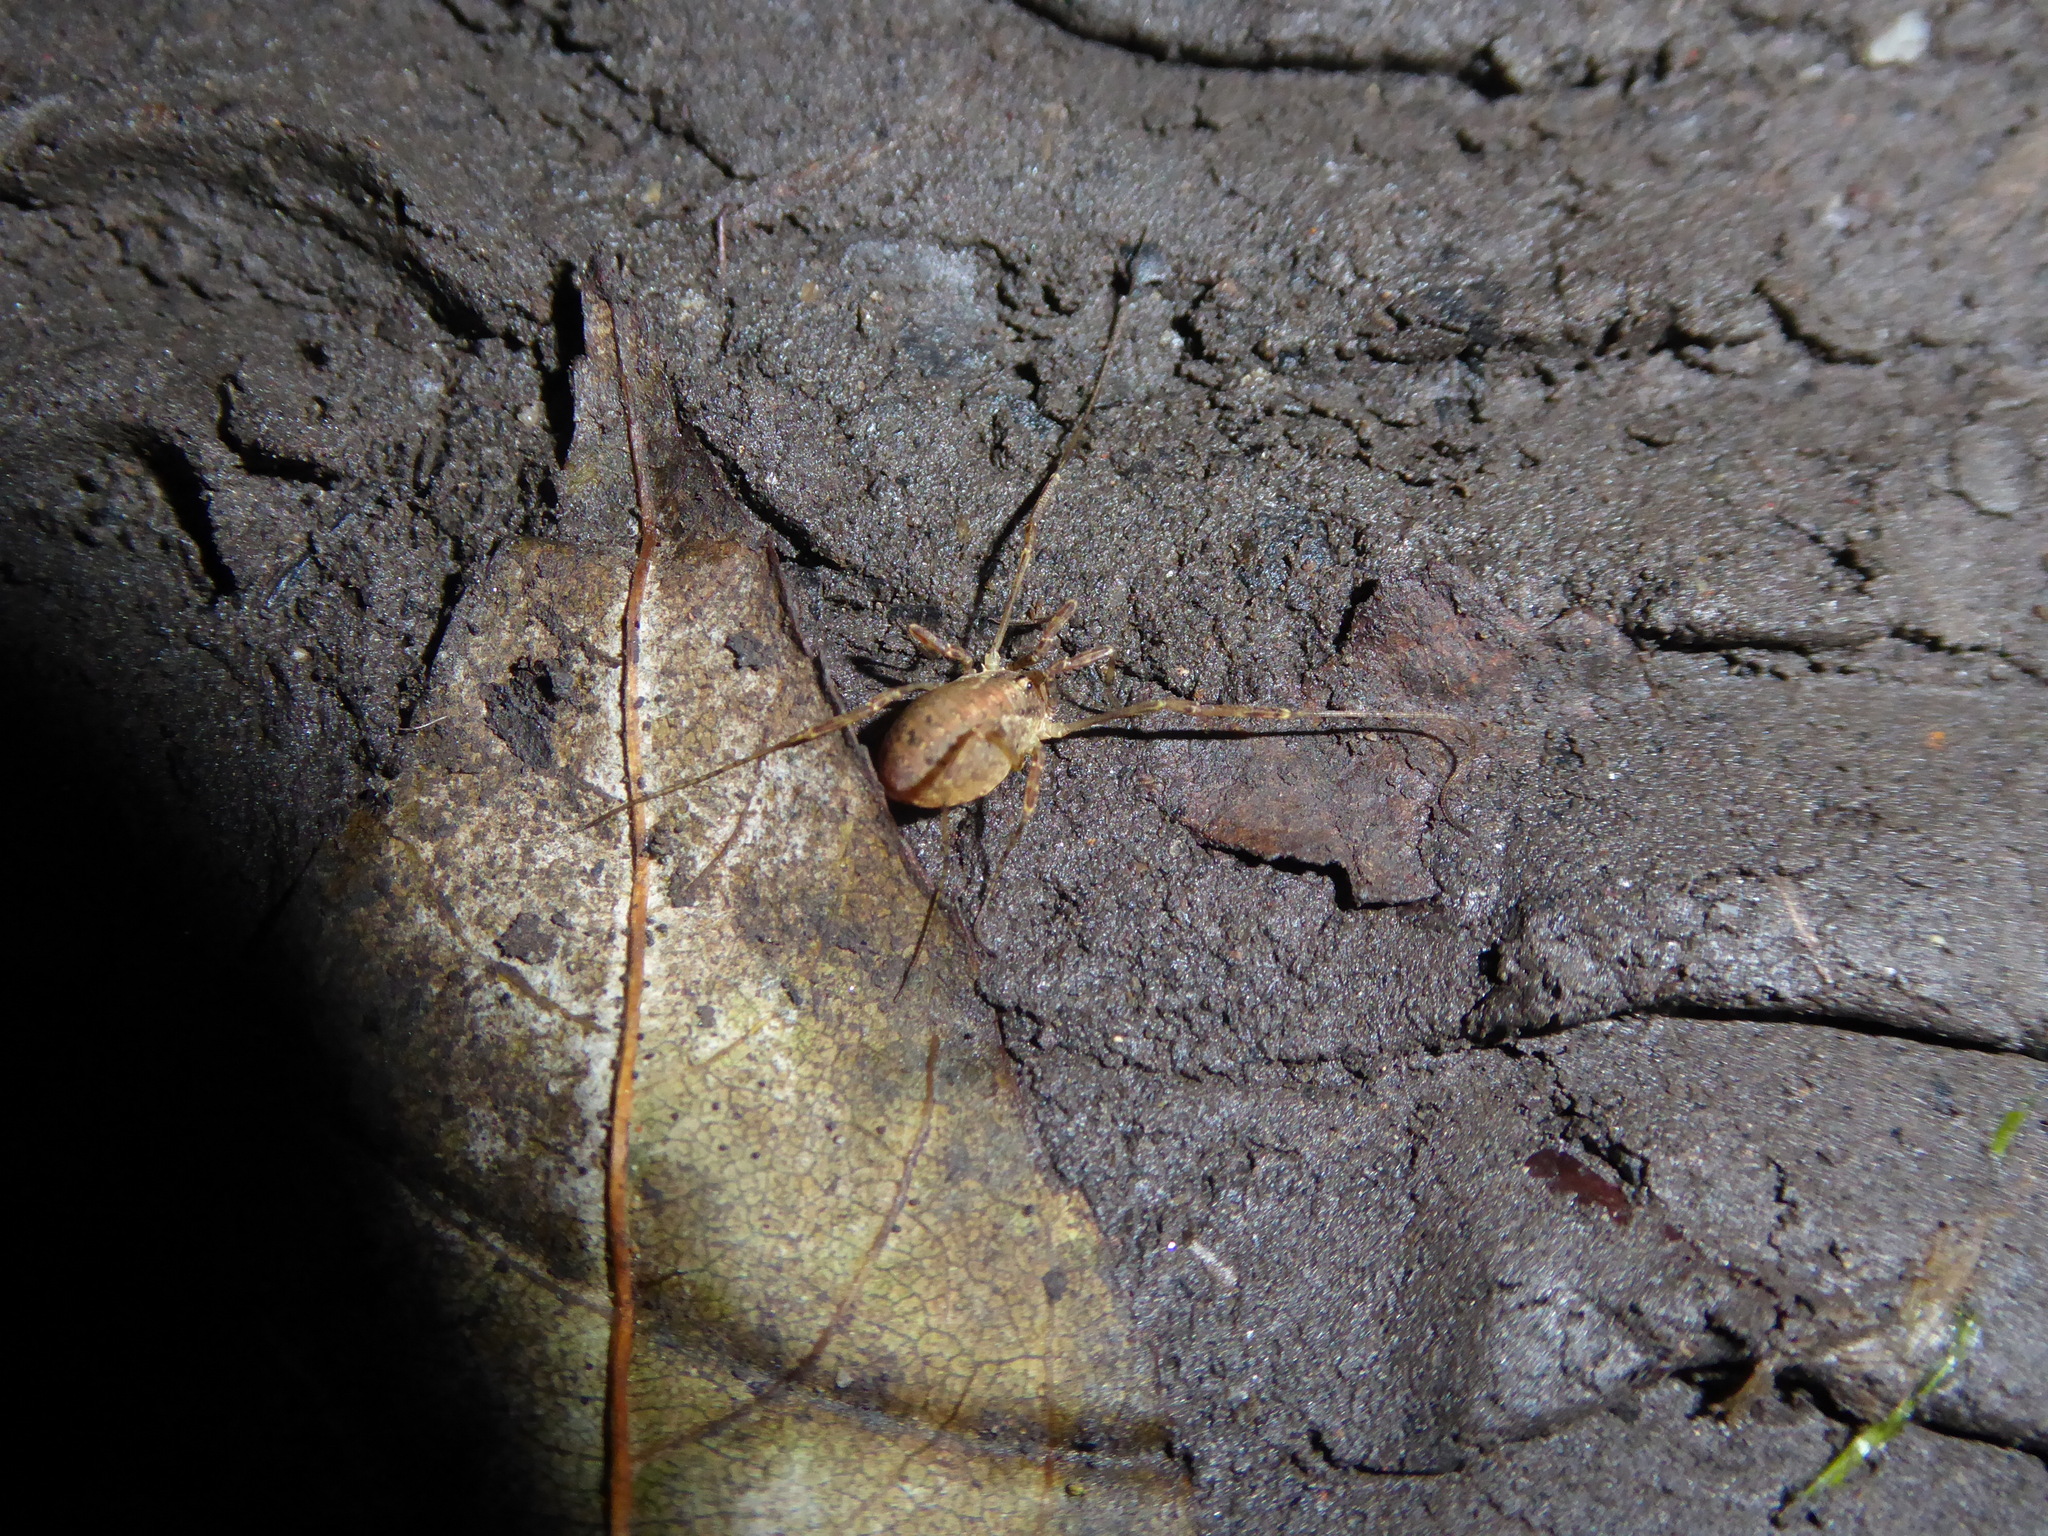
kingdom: Animalia
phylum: Arthropoda
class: Arachnida
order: Opiliones
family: Phalangiidae
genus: Paroligolophus
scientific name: Paroligolophus agrestis
